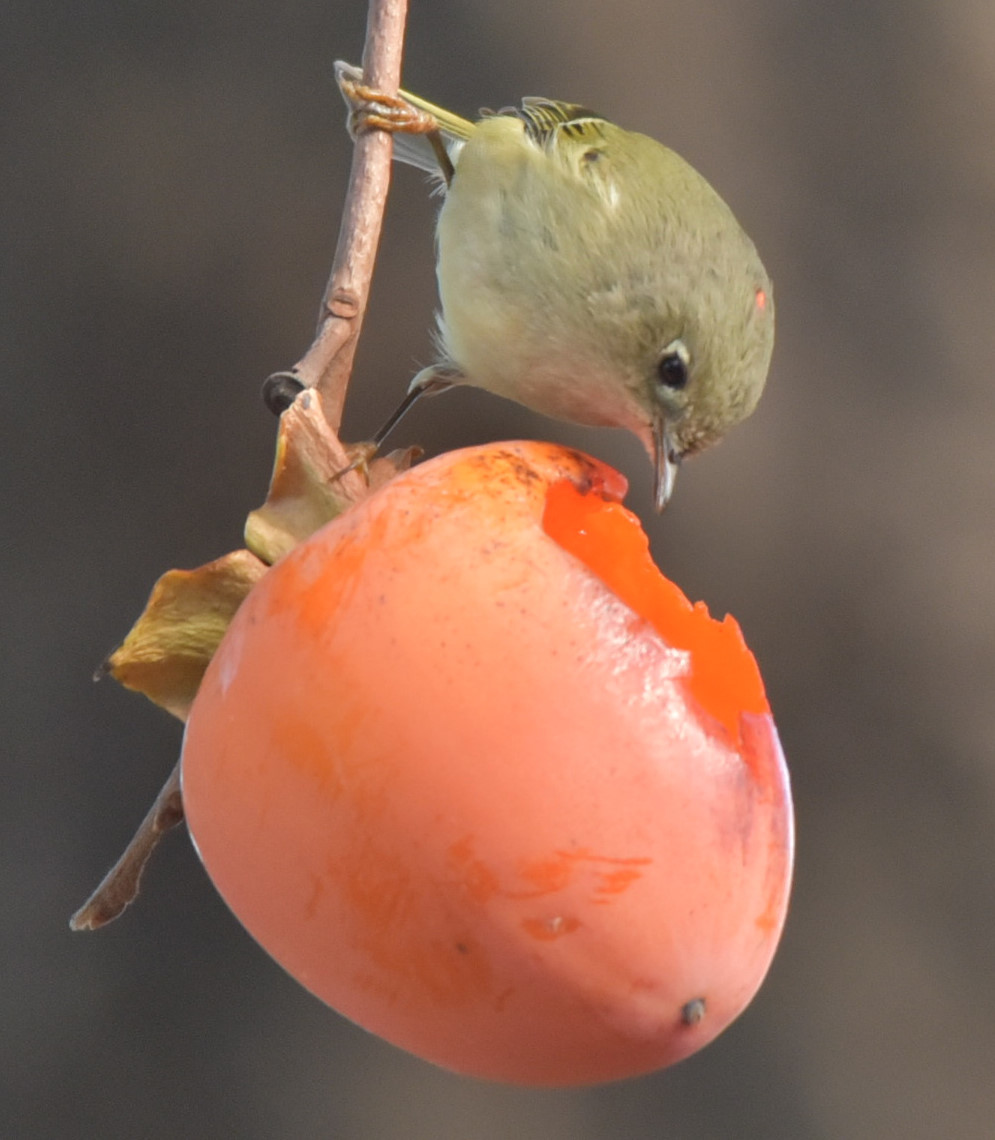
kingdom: Animalia
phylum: Chordata
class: Aves
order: Passeriformes
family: Regulidae
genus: Regulus
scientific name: Regulus calendula
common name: Ruby-crowned kinglet
